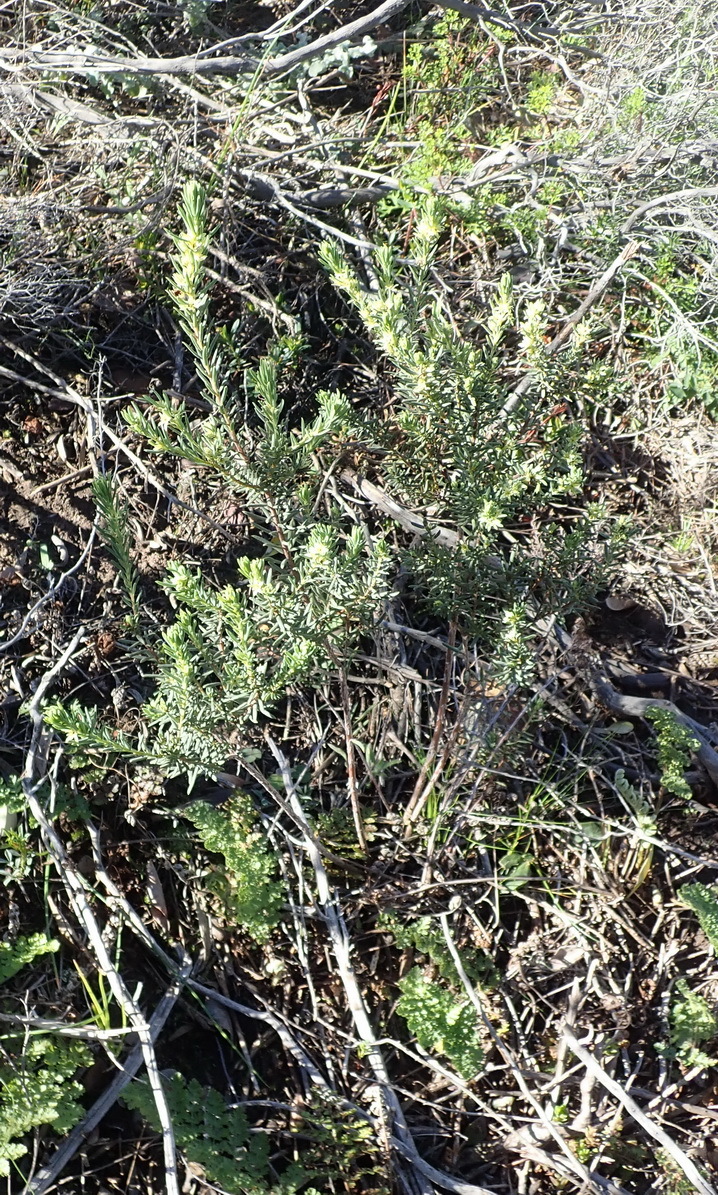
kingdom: Plantae
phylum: Tracheophyta
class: Magnoliopsida
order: Malpighiales
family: Peraceae
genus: Clutia
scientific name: Clutia polifolia
